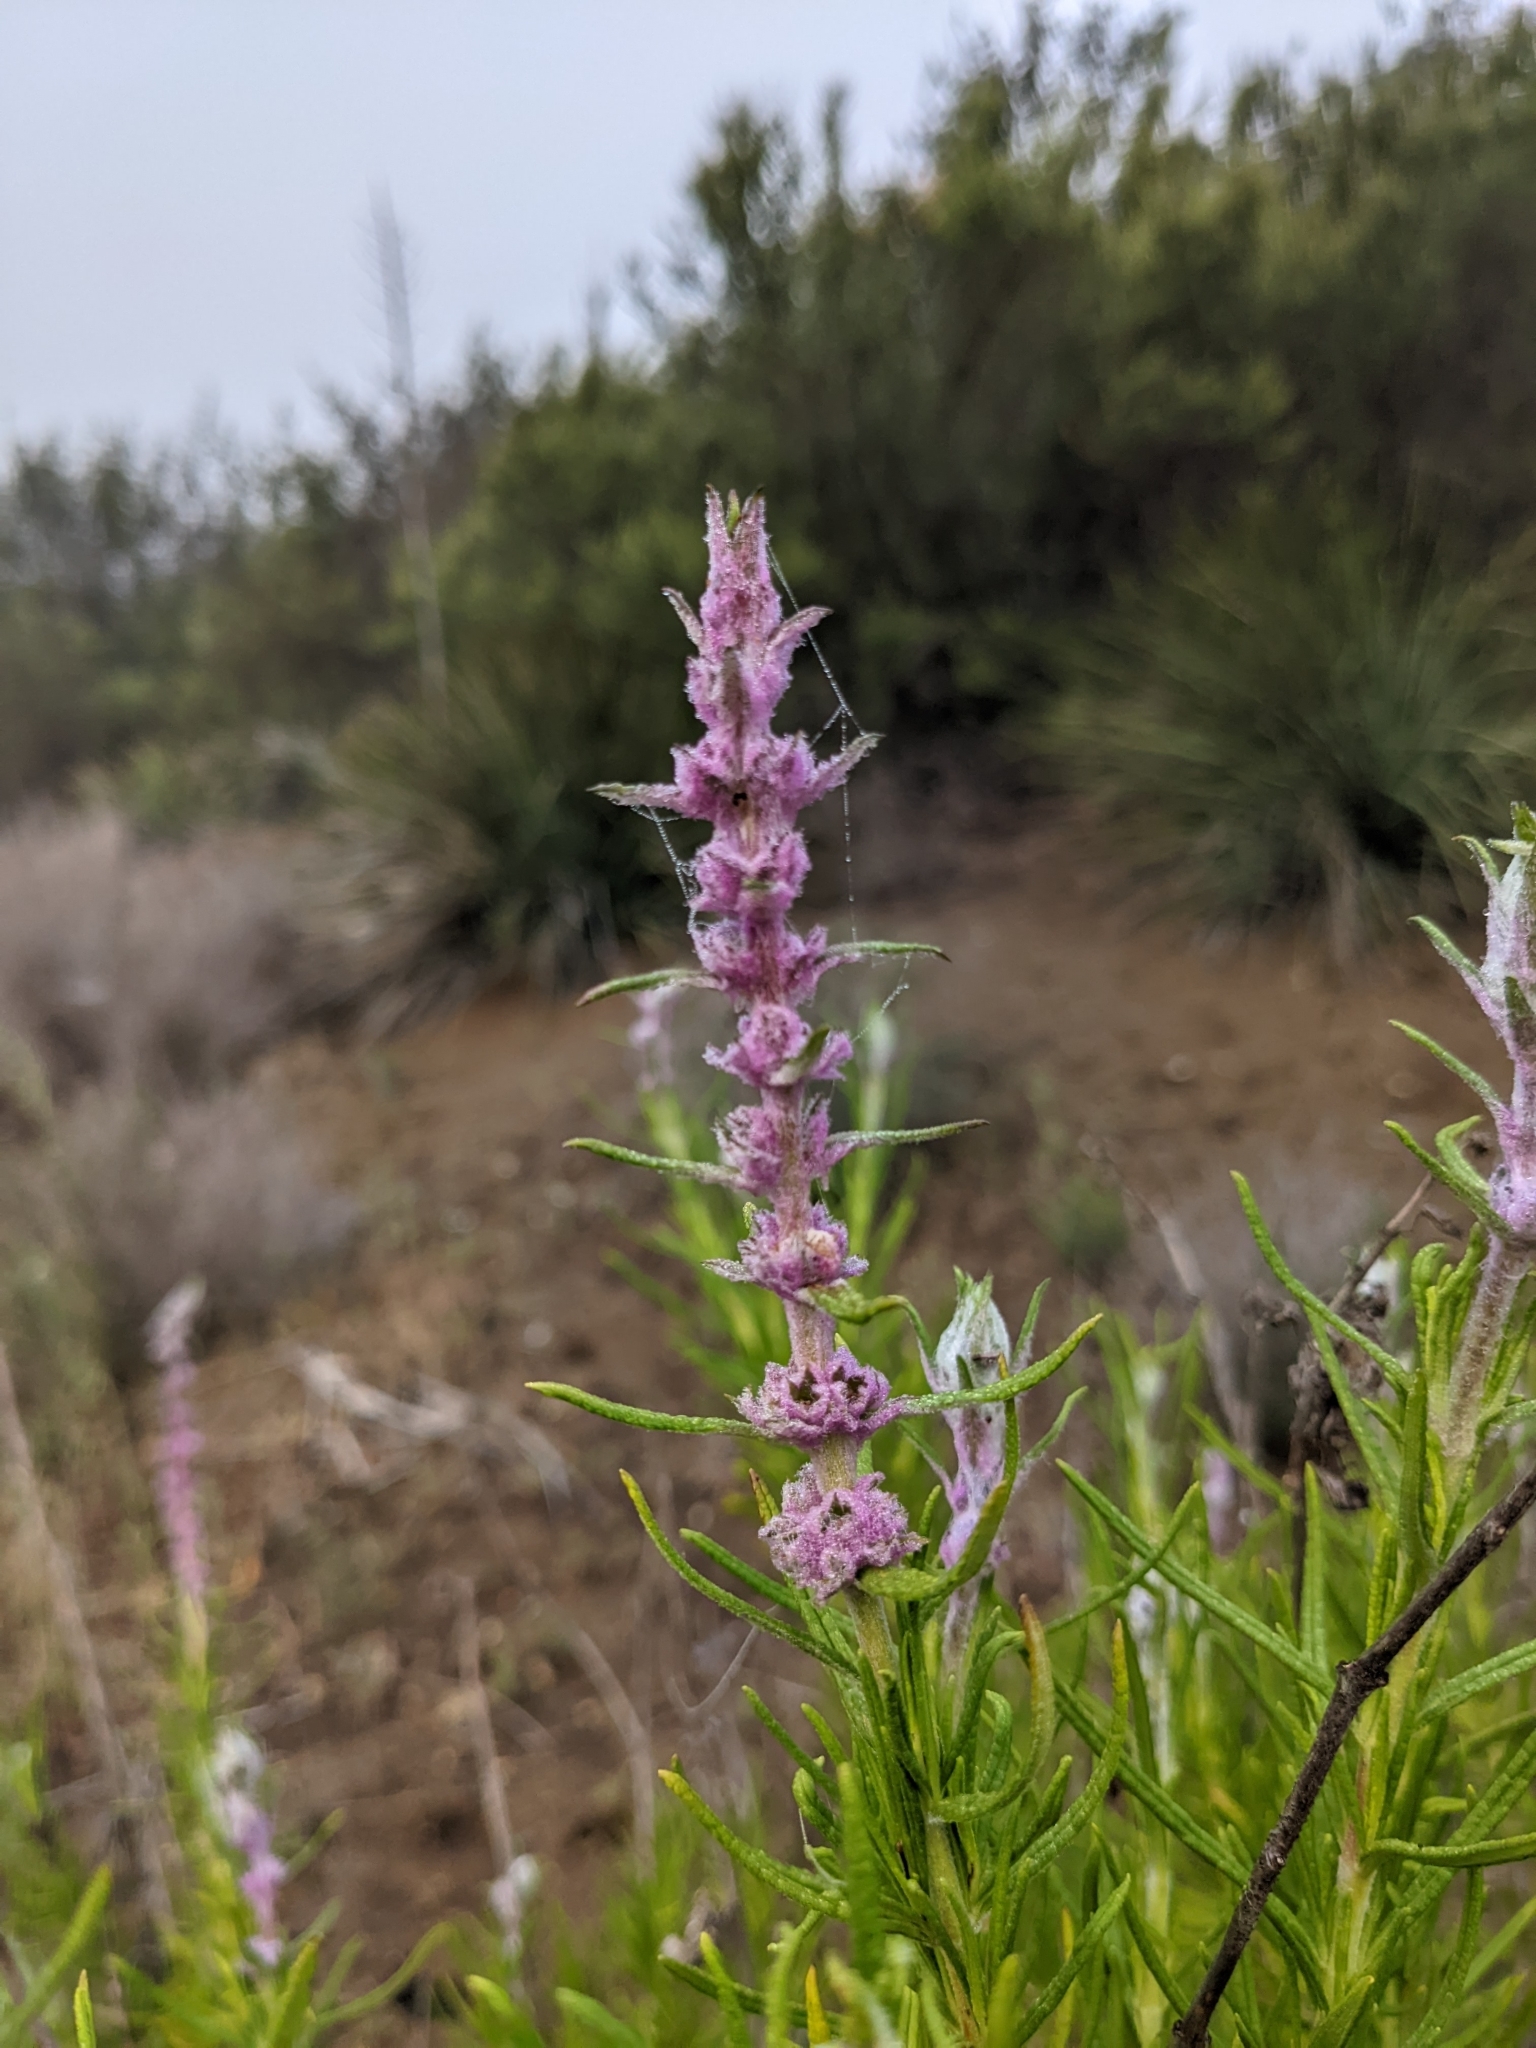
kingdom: Plantae
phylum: Tracheophyta
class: Magnoliopsida
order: Lamiales
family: Lamiaceae
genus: Trichostema
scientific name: Trichostema lanatum
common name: Woolly bluecurls
